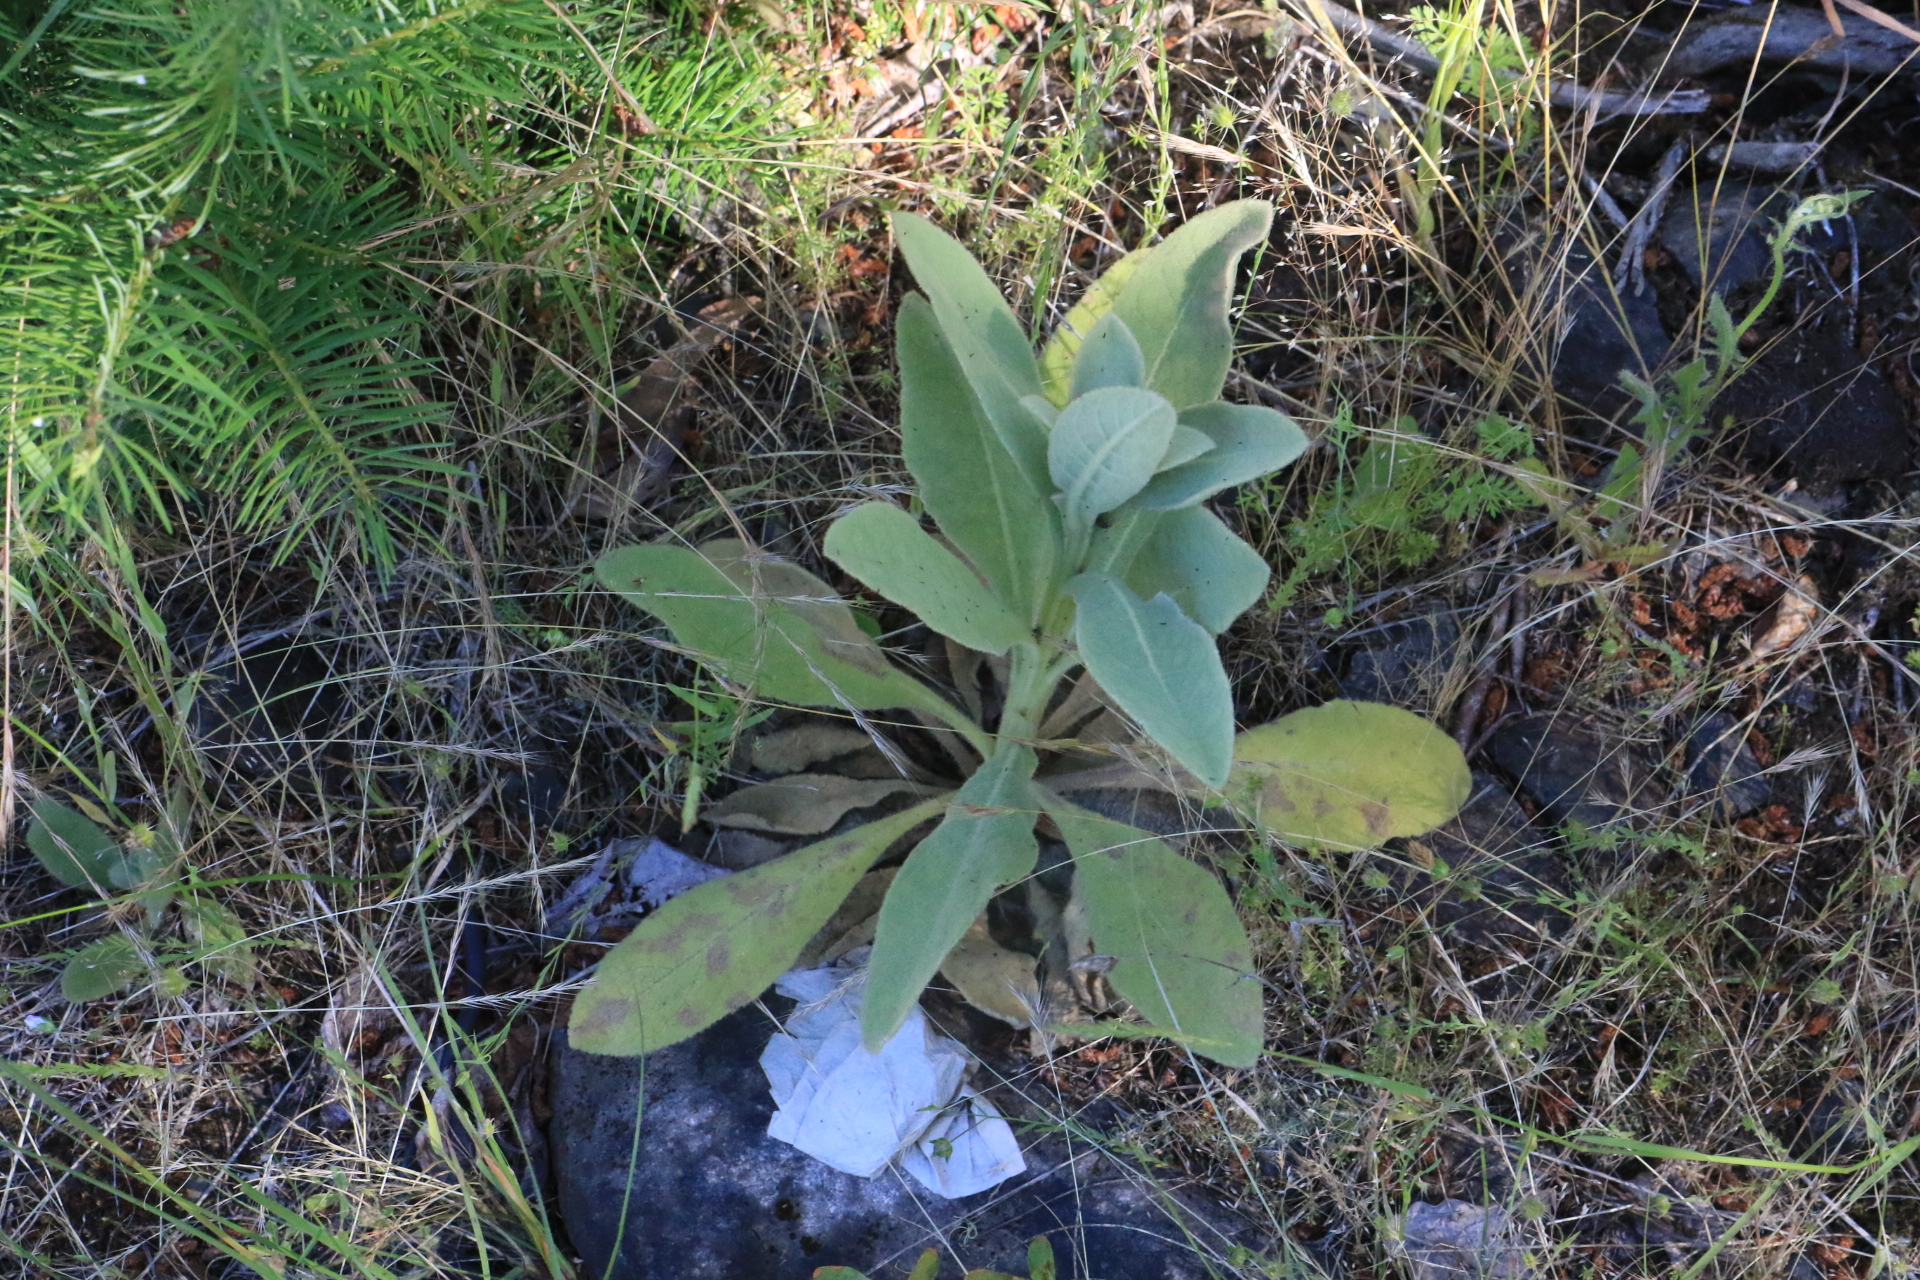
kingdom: Plantae
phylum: Tracheophyta
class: Magnoliopsida
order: Lamiales
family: Scrophulariaceae
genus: Verbascum
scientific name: Verbascum thapsus
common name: Common mullein
